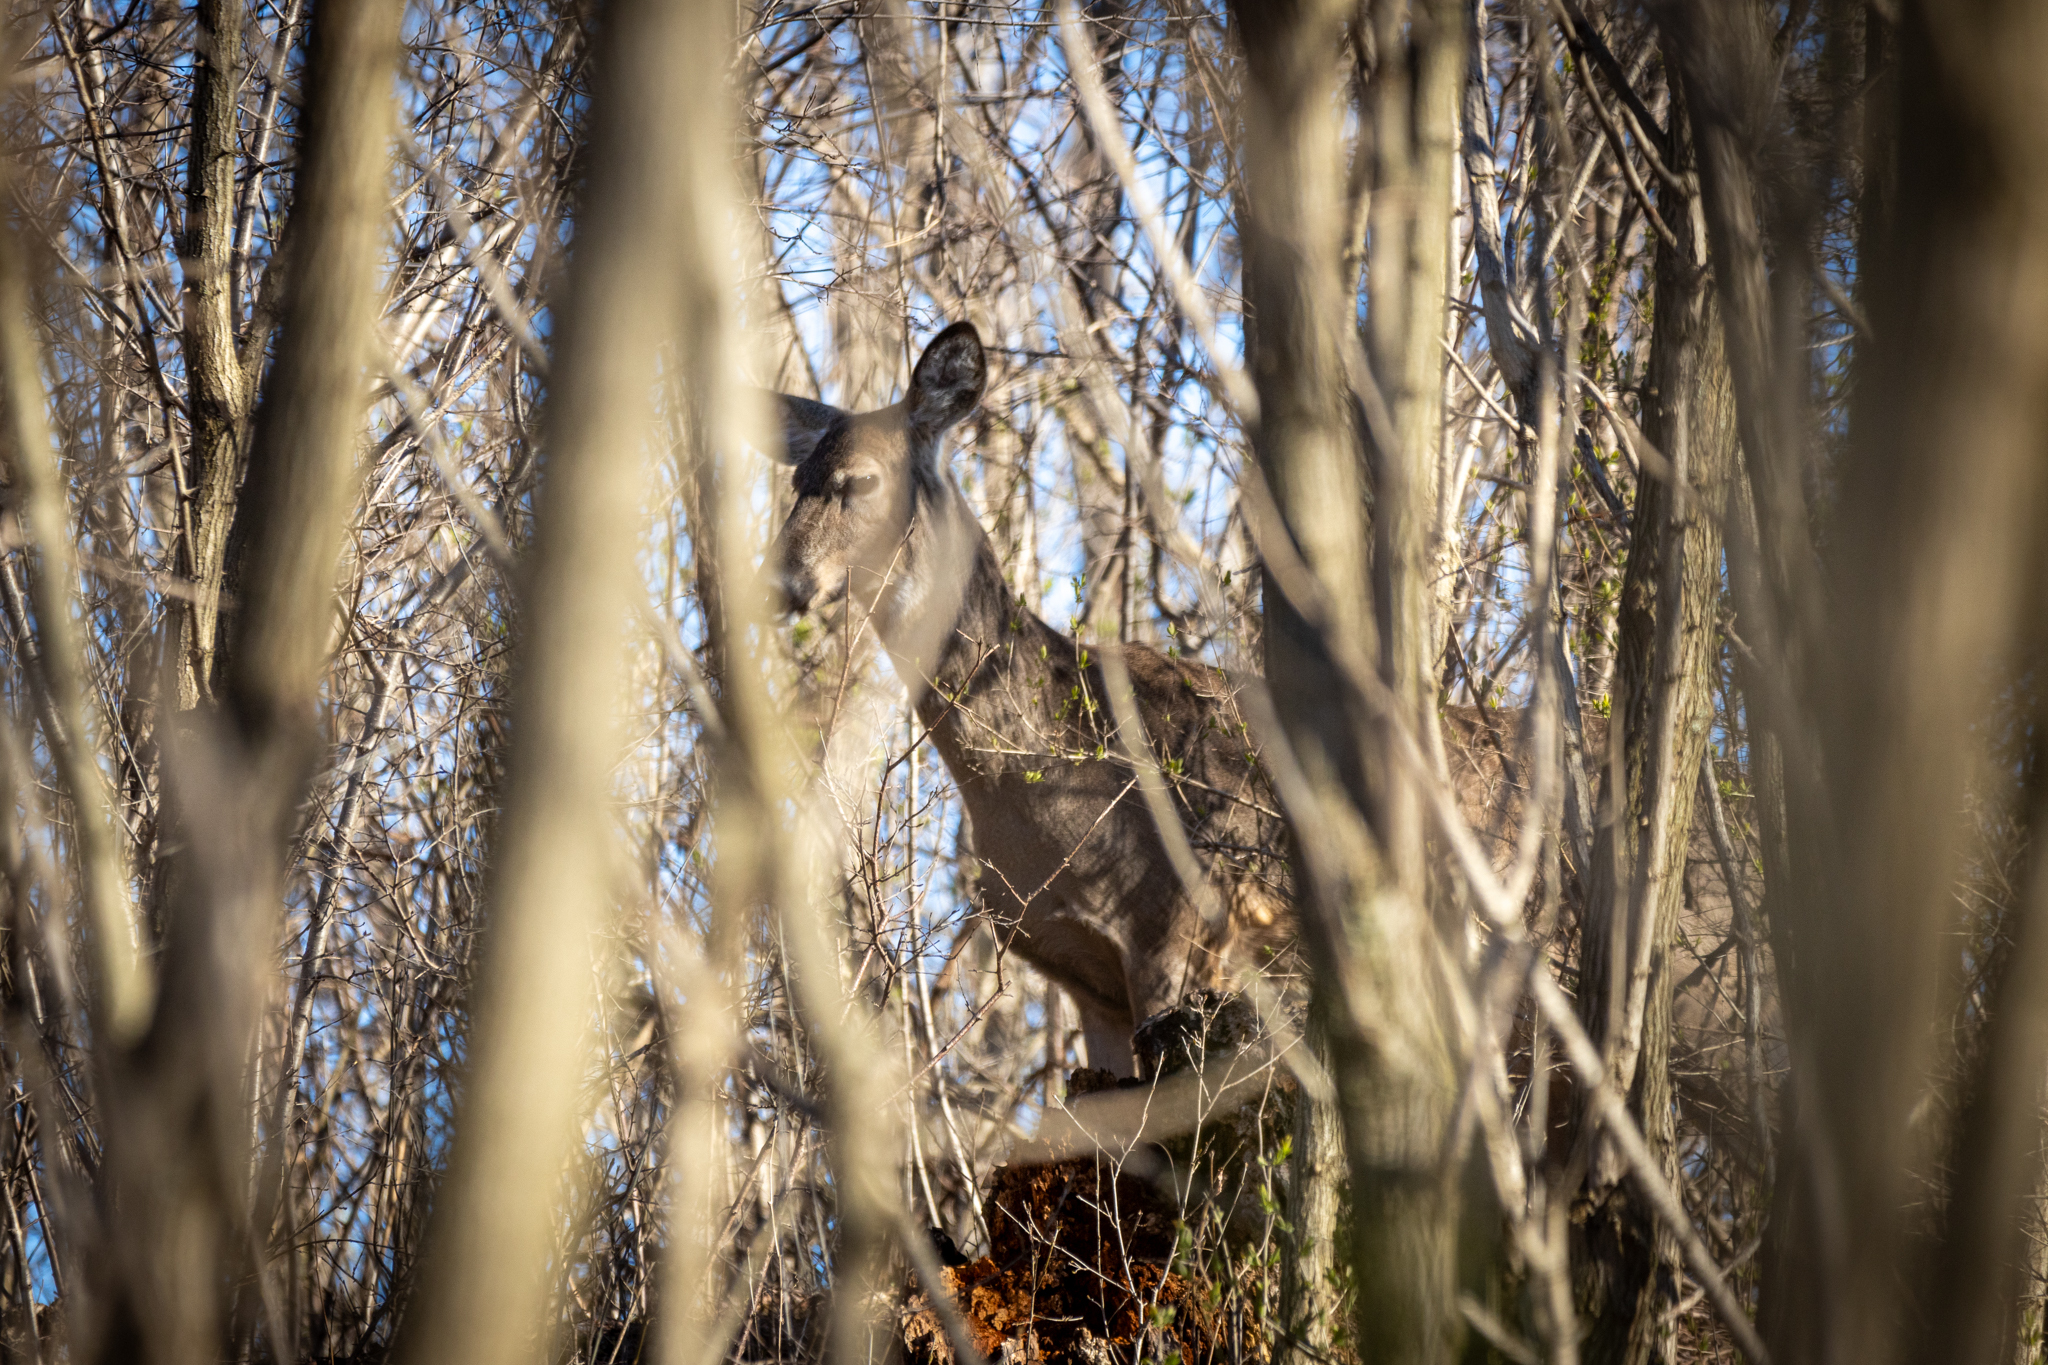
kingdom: Animalia
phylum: Chordata
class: Mammalia
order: Artiodactyla
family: Cervidae
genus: Odocoileus
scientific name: Odocoileus virginianus
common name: White-tailed deer
